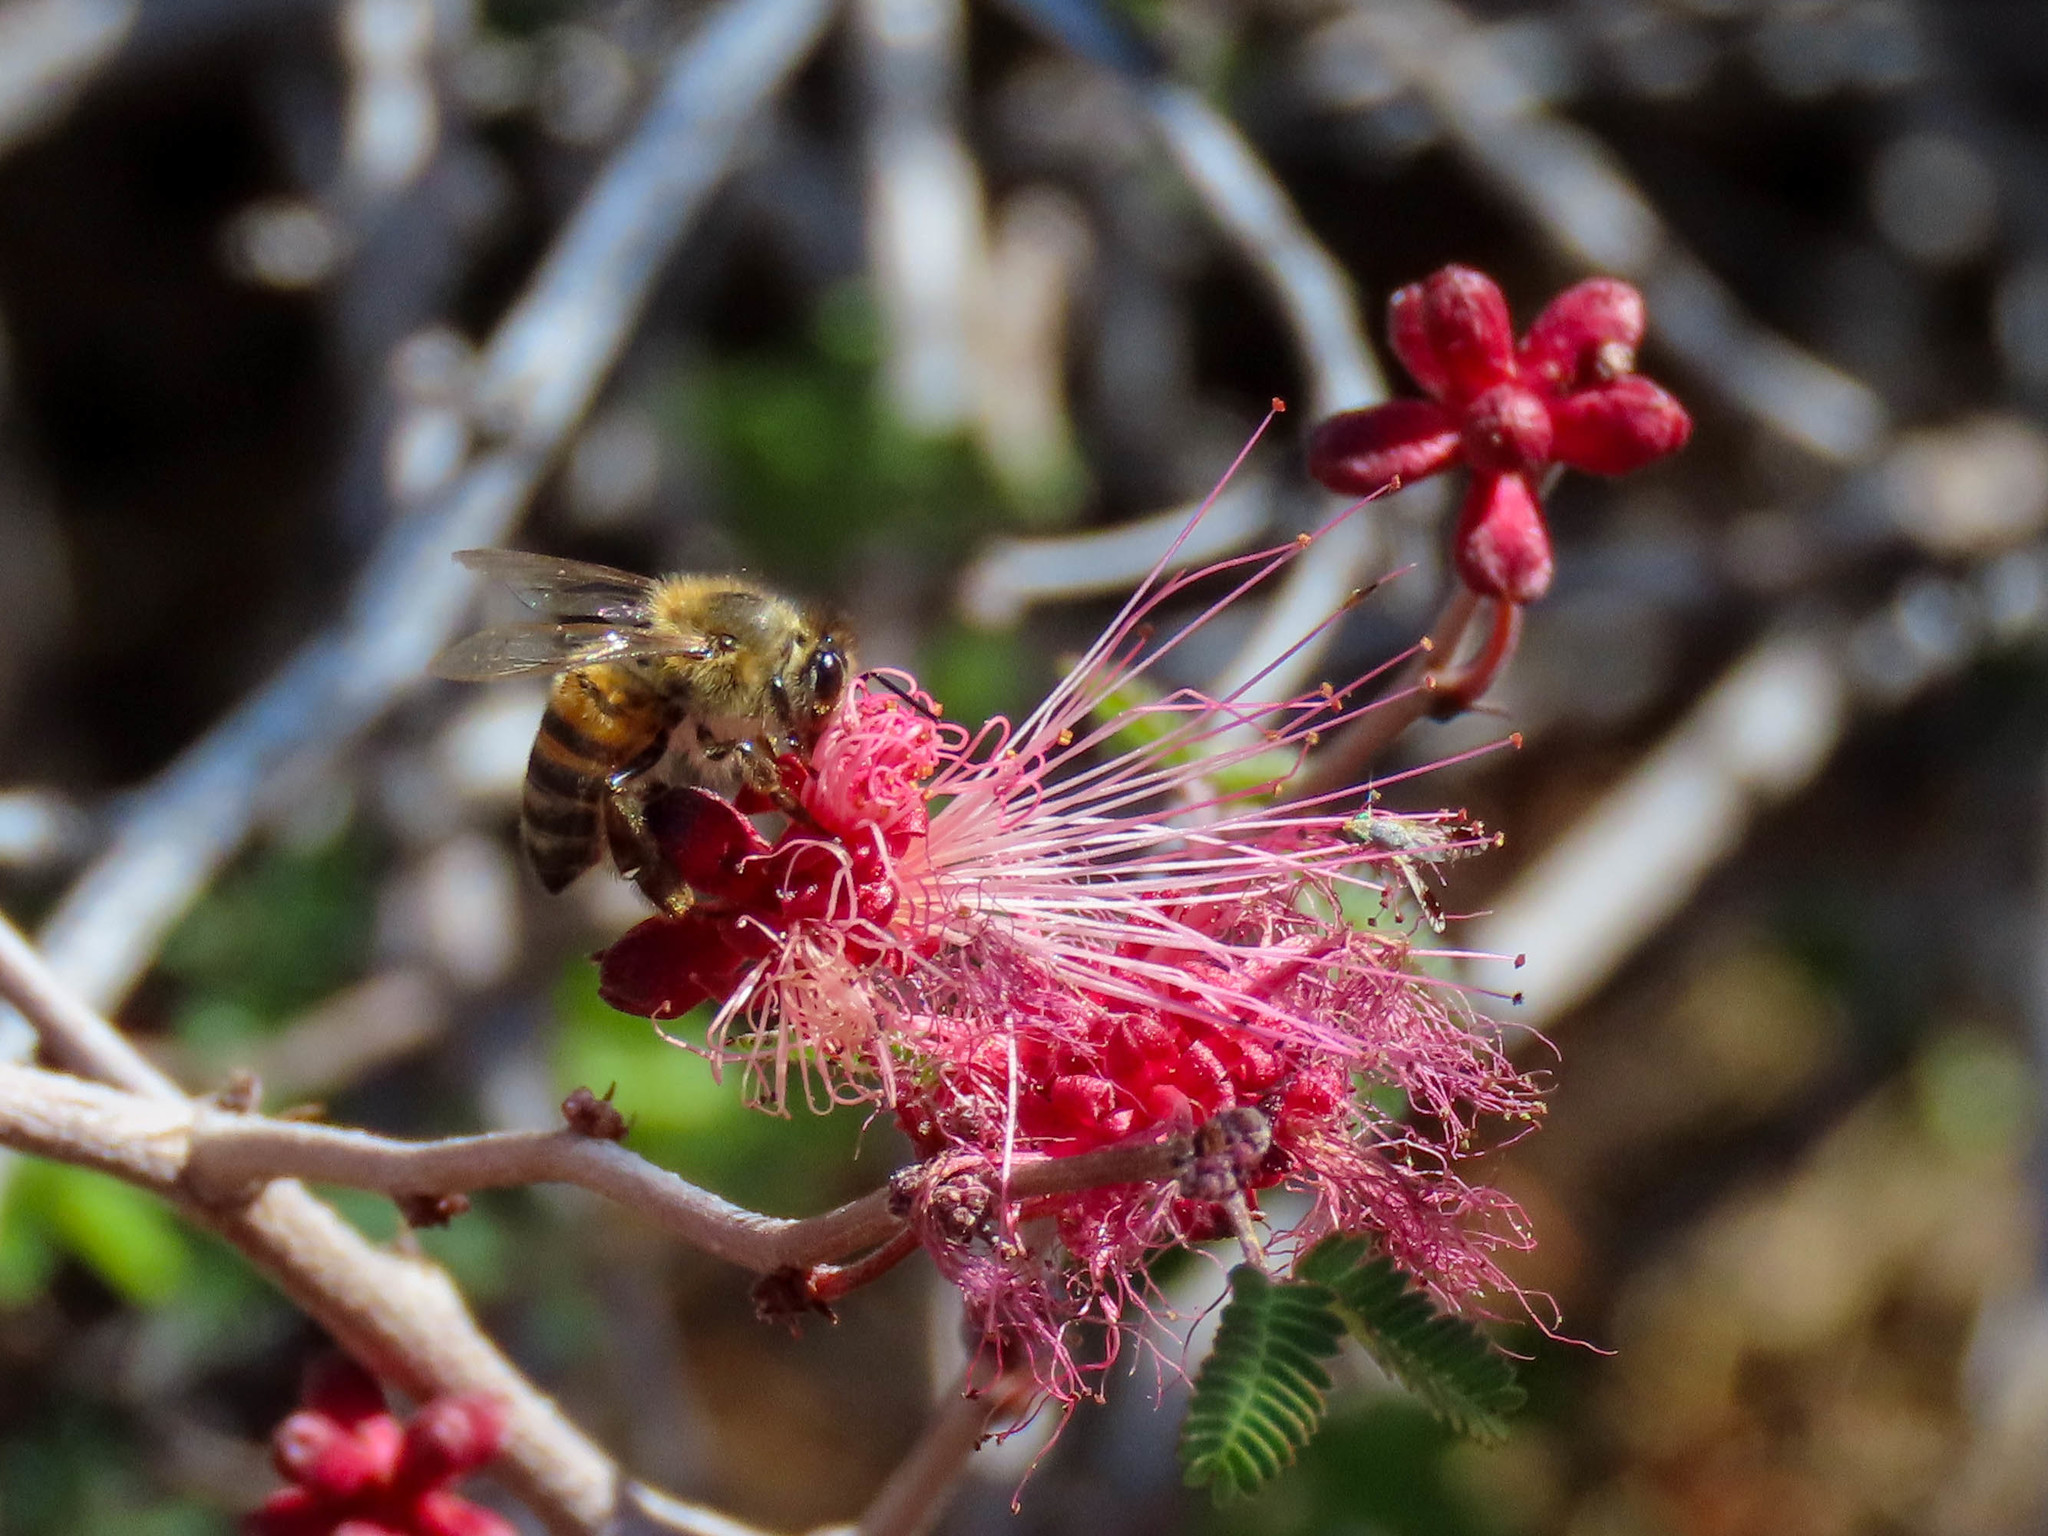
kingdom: Animalia
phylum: Arthropoda
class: Insecta
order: Hymenoptera
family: Apidae
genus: Apis
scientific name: Apis mellifera
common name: Honey bee
